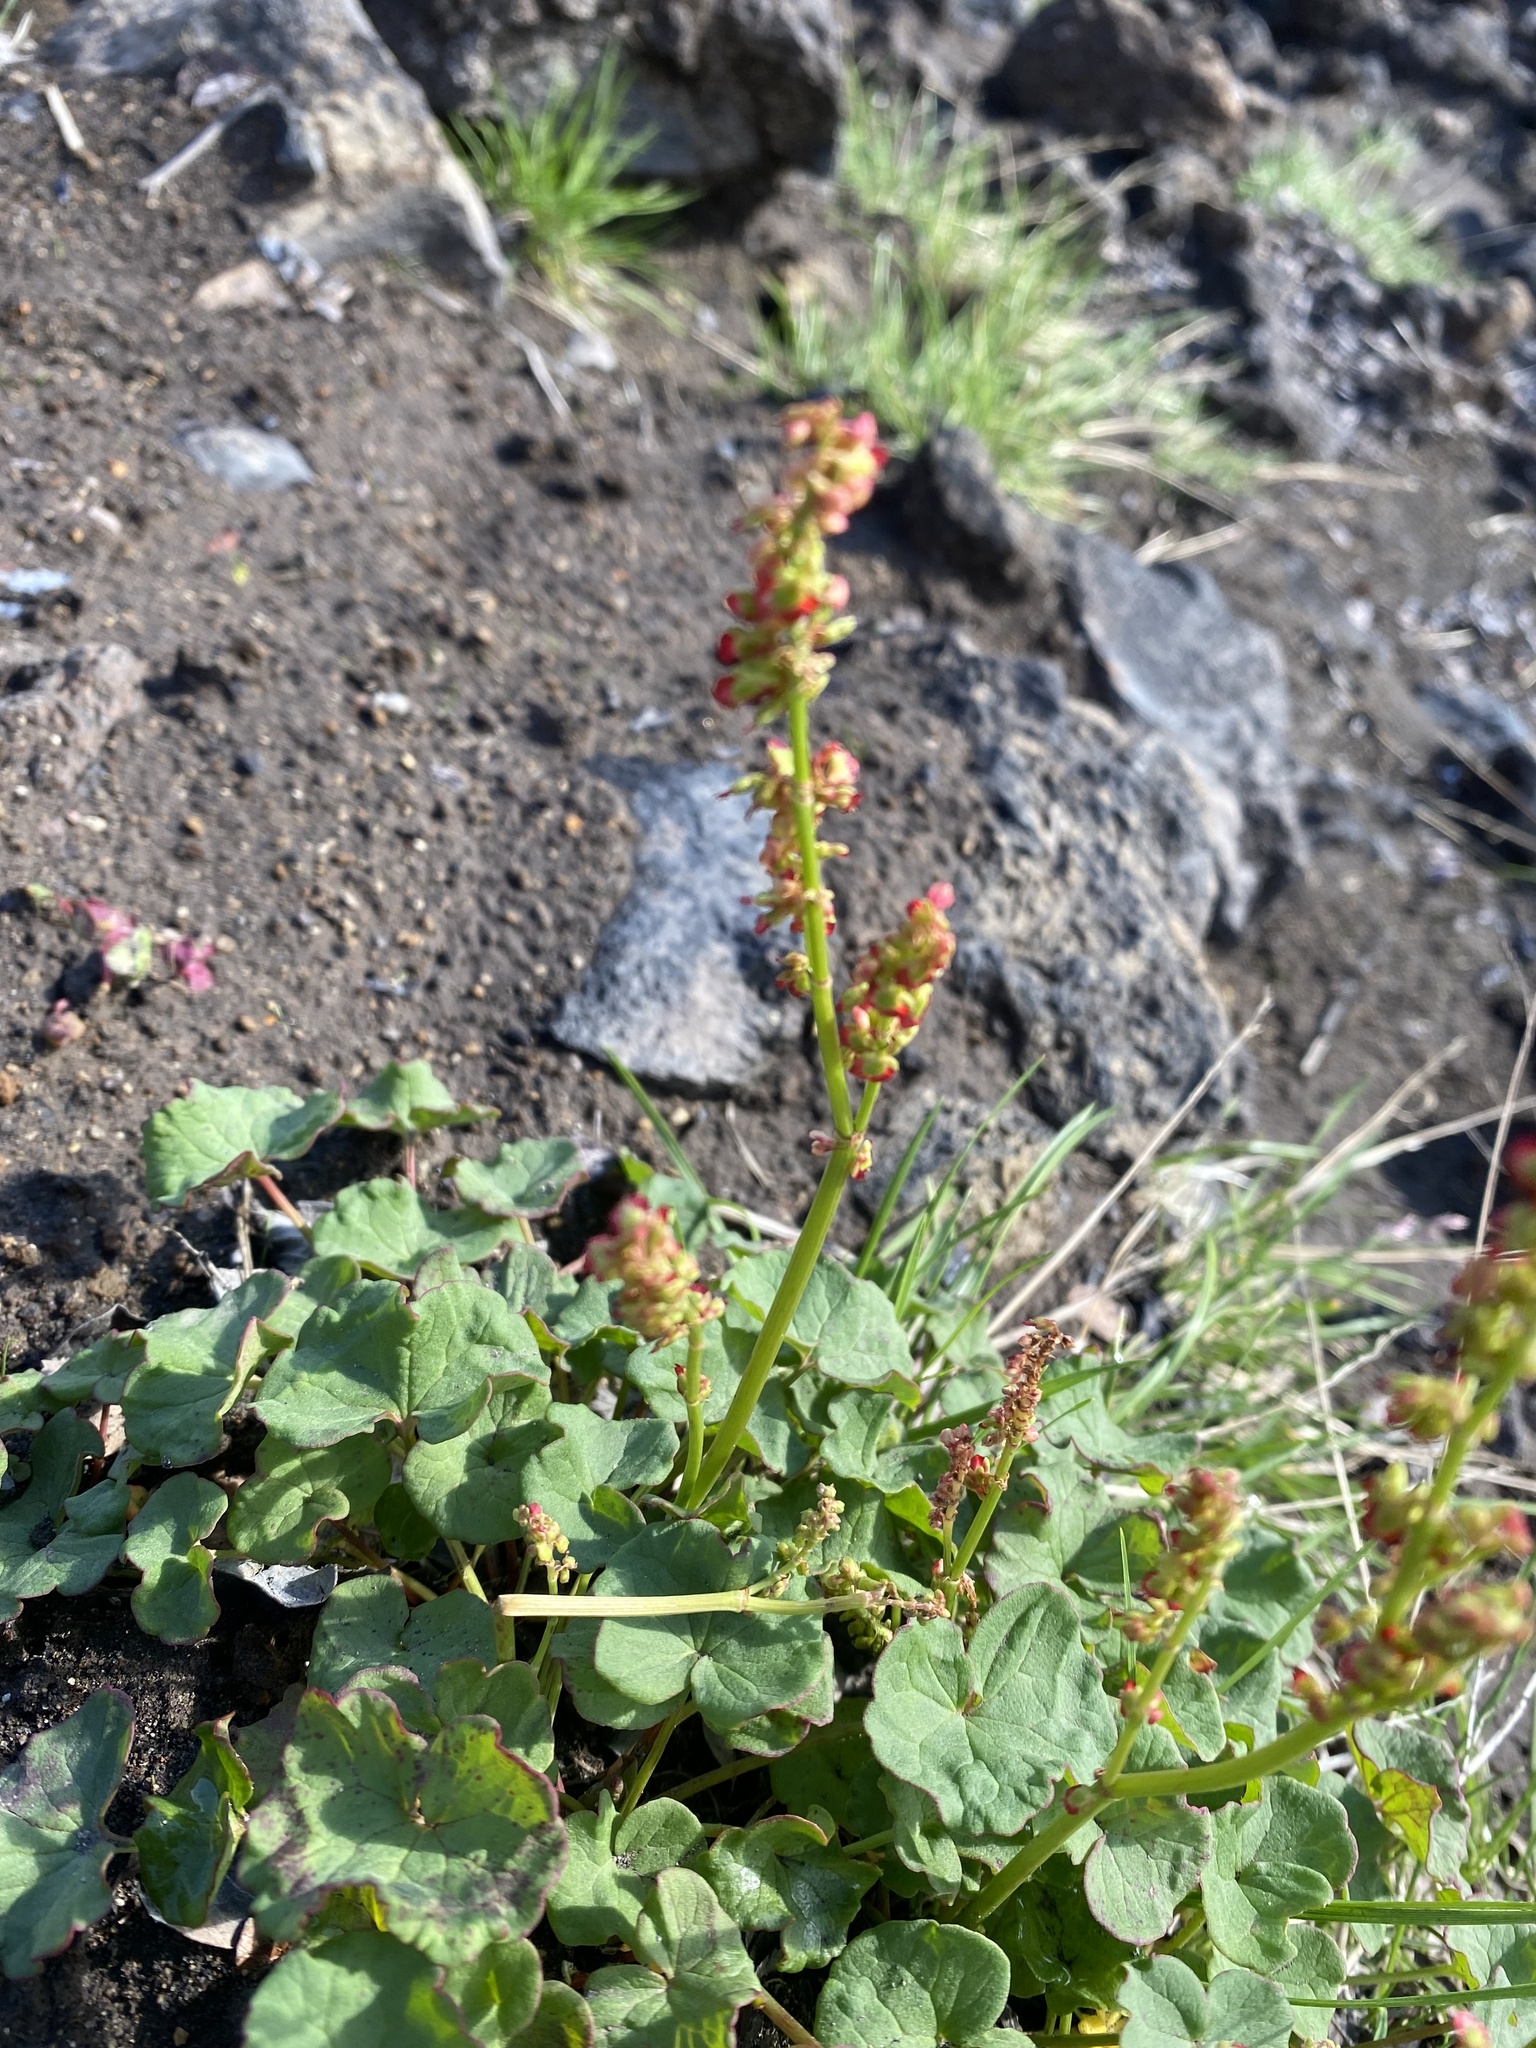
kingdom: Plantae
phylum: Tracheophyta
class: Magnoliopsida
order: Caryophyllales
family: Polygonaceae
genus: Oxyria
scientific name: Oxyria digyna
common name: Alpine mountain-sorrel
